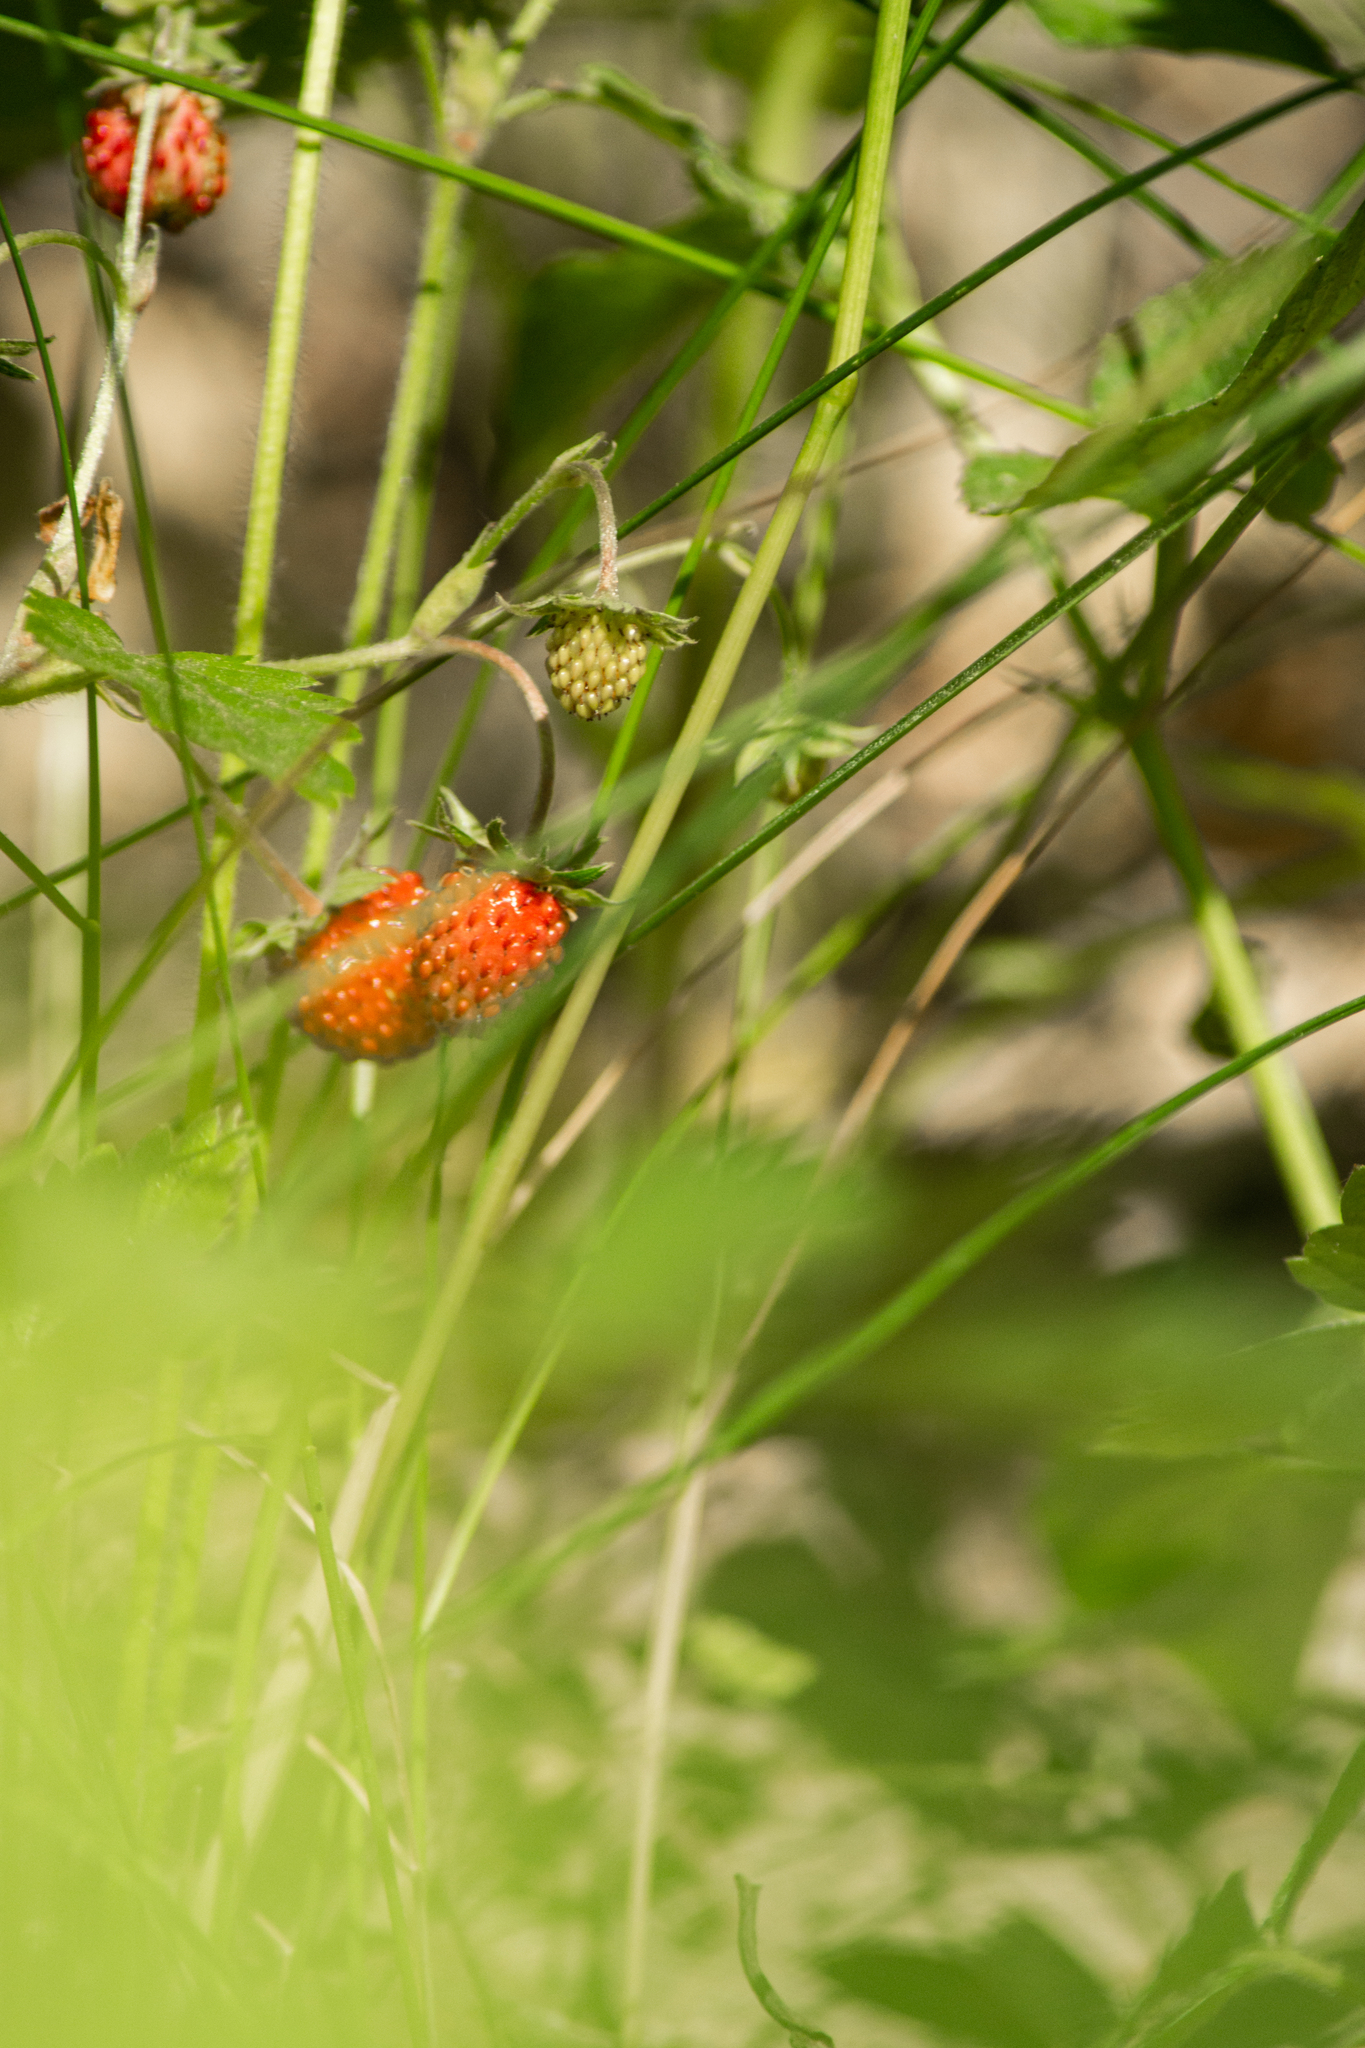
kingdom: Plantae
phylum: Tracheophyta
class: Magnoliopsida
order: Rosales
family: Rosaceae
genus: Fragaria
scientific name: Fragaria vesca
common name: Wild strawberry
